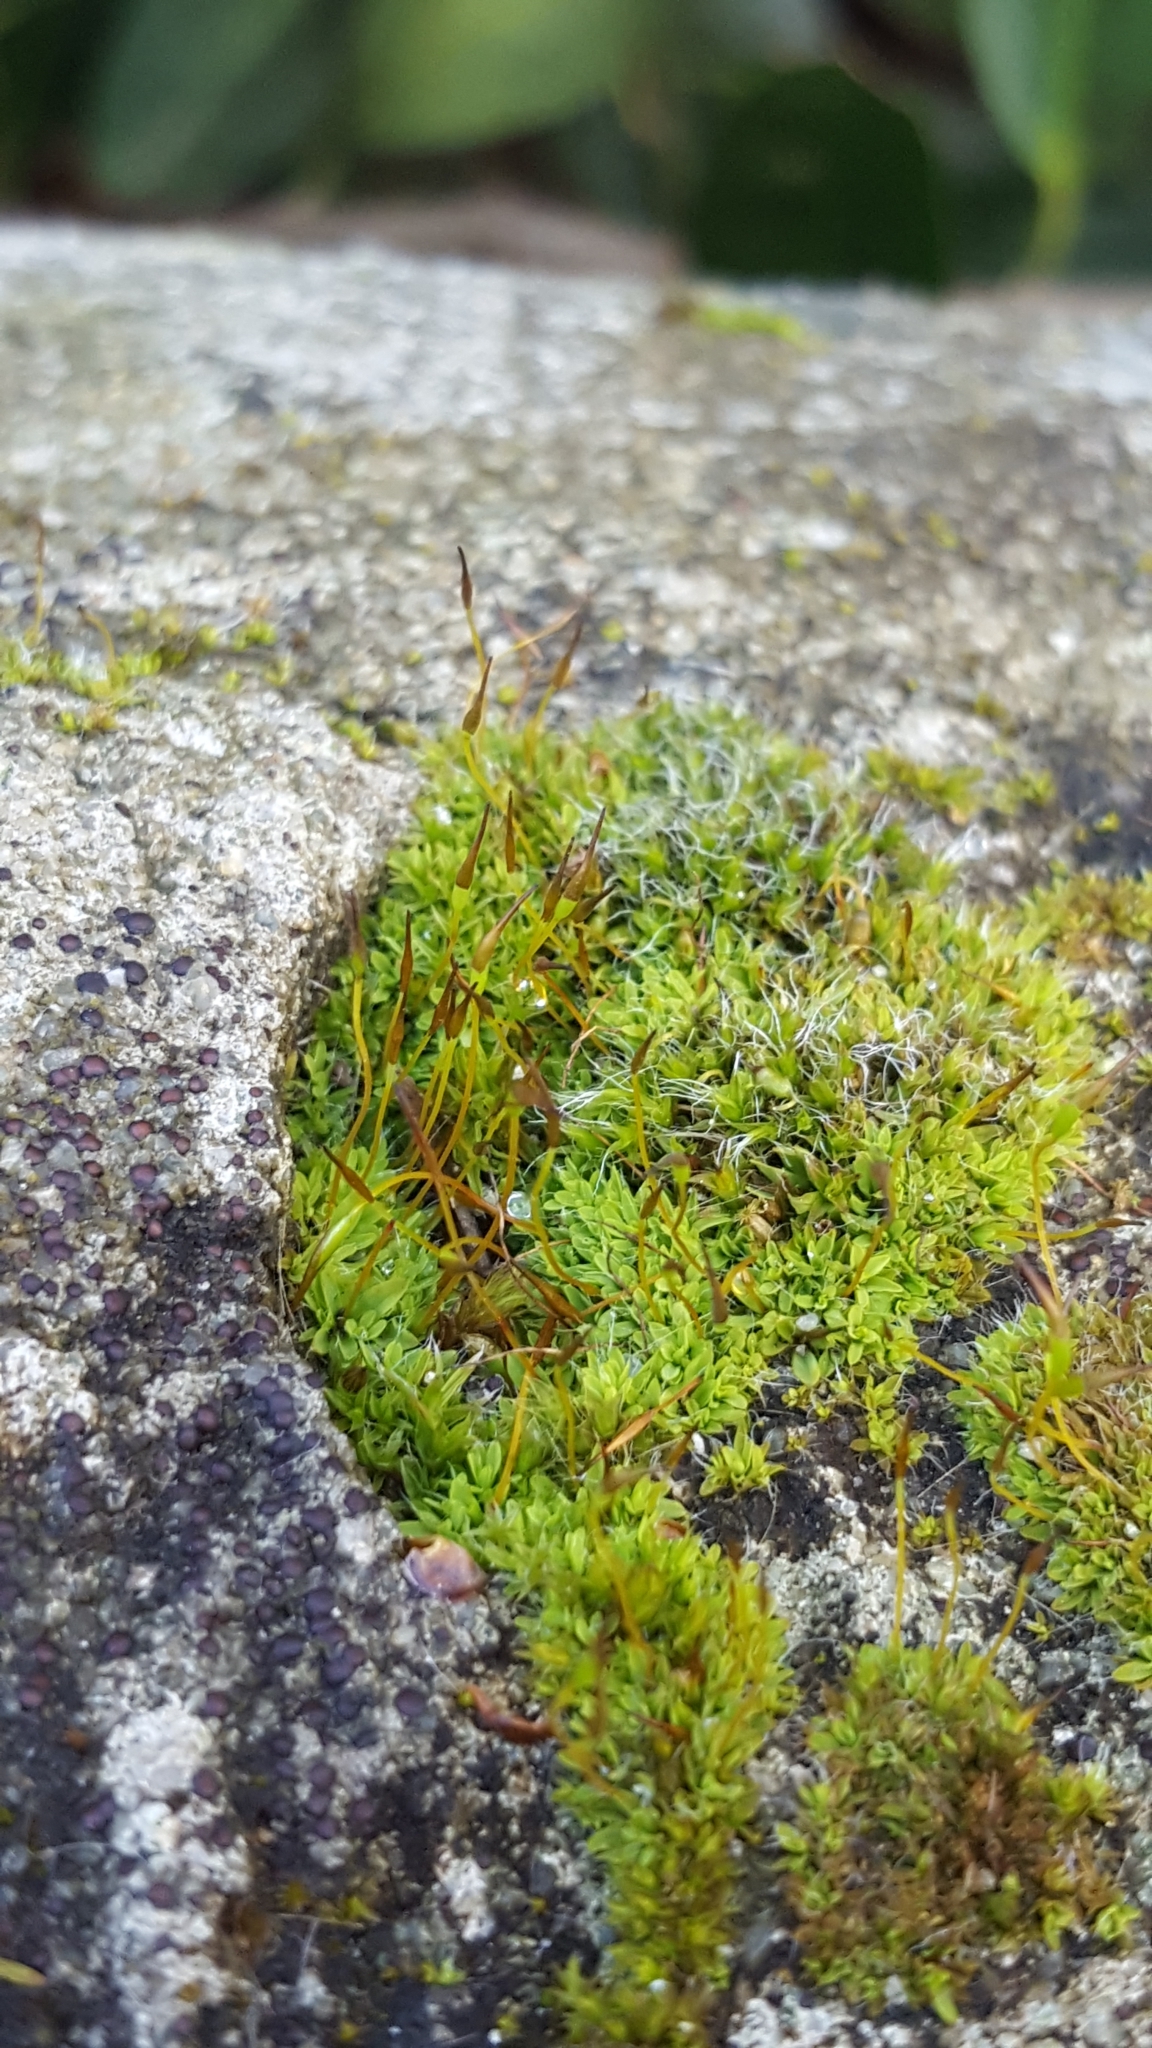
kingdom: Plantae
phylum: Bryophyta
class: Bryopsida
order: Pottiales
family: Pottiaceae
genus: Tortula
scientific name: Tortula muralis
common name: Wall screw-moss
